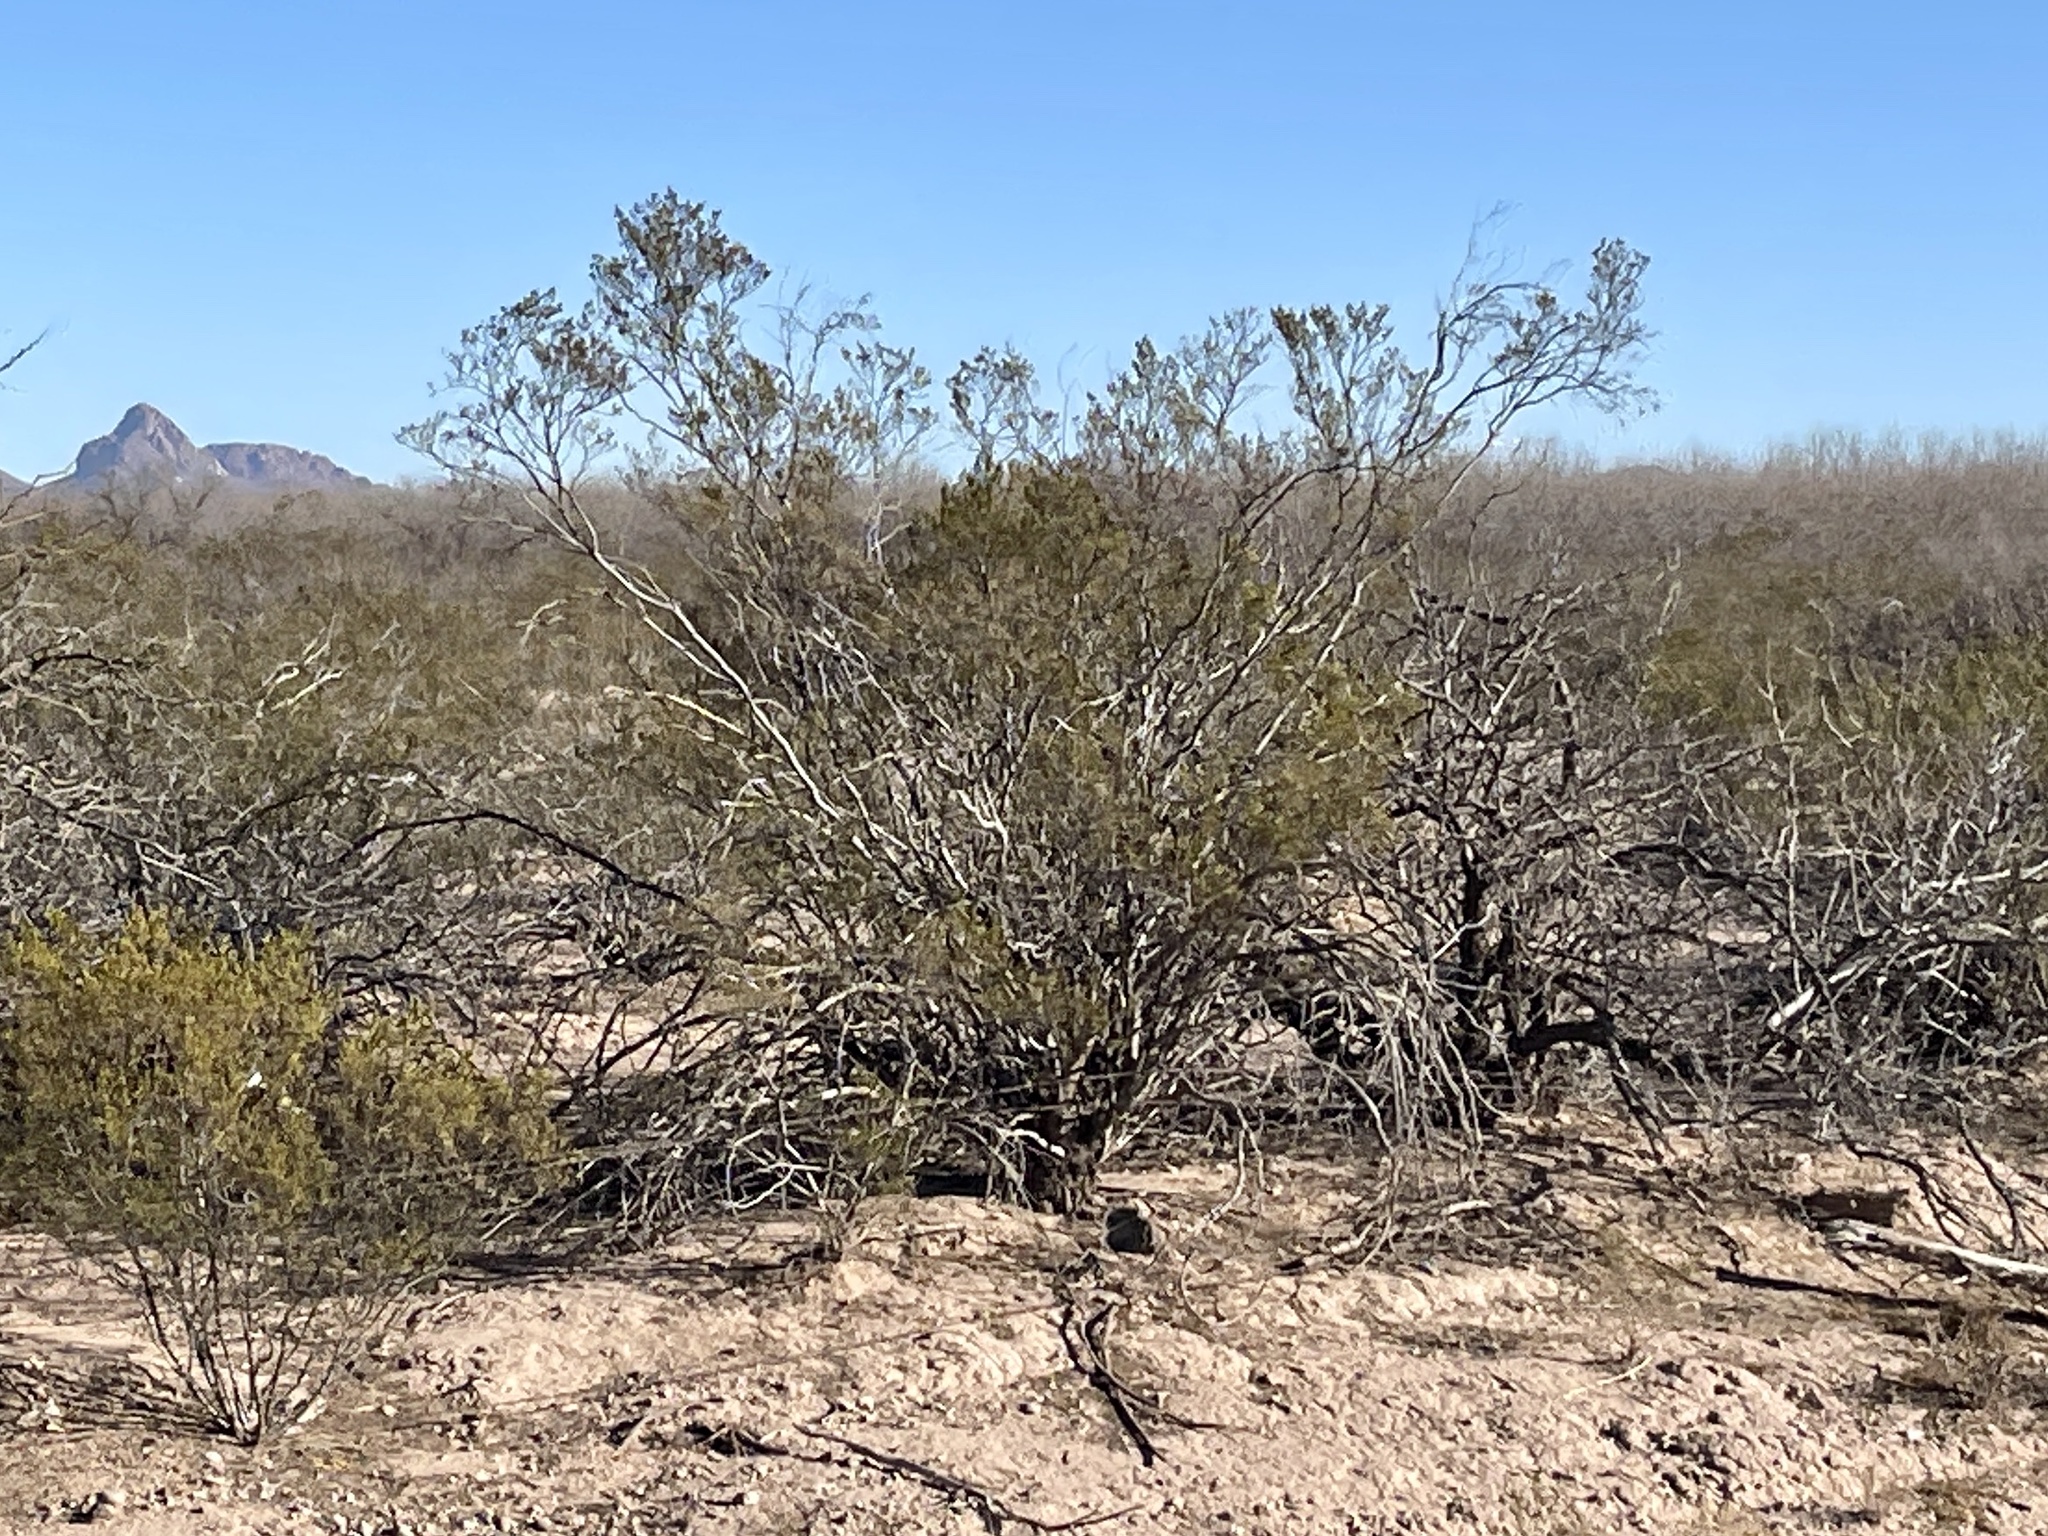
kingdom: Plantae
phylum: Tracheophyta
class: Magnoliopsida
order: Zygophyllales
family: Zygophyllaceae
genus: Larrea
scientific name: Larrea tridentata
